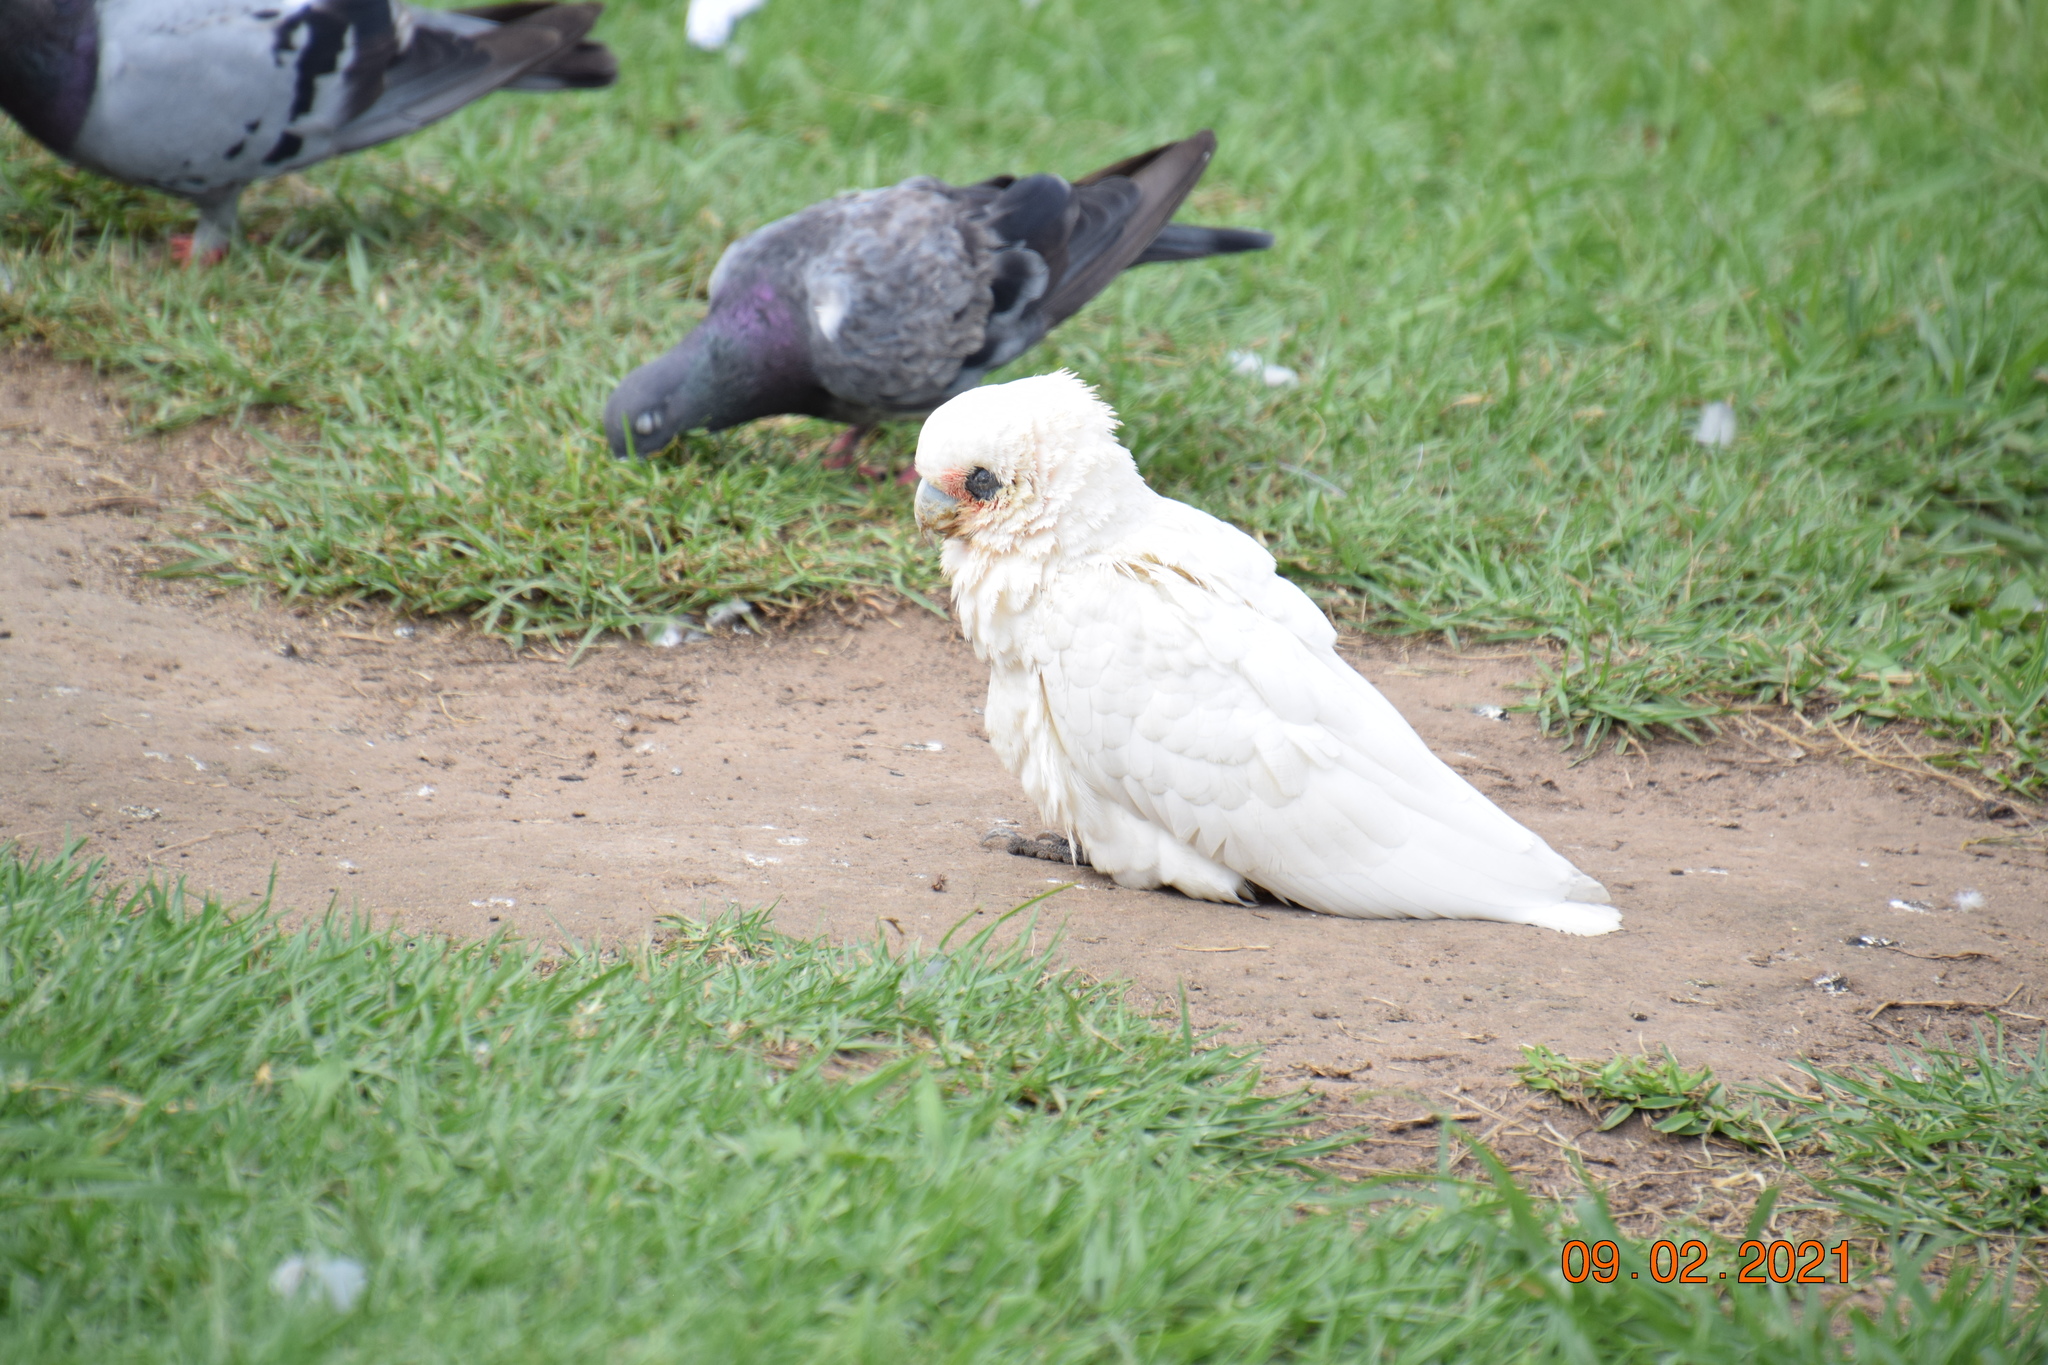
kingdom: Animalia
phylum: Chordata
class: Aves
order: Psittaciformes
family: Psittacidae
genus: Cacatua
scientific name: Cacatua sanguinea
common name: Little corella
